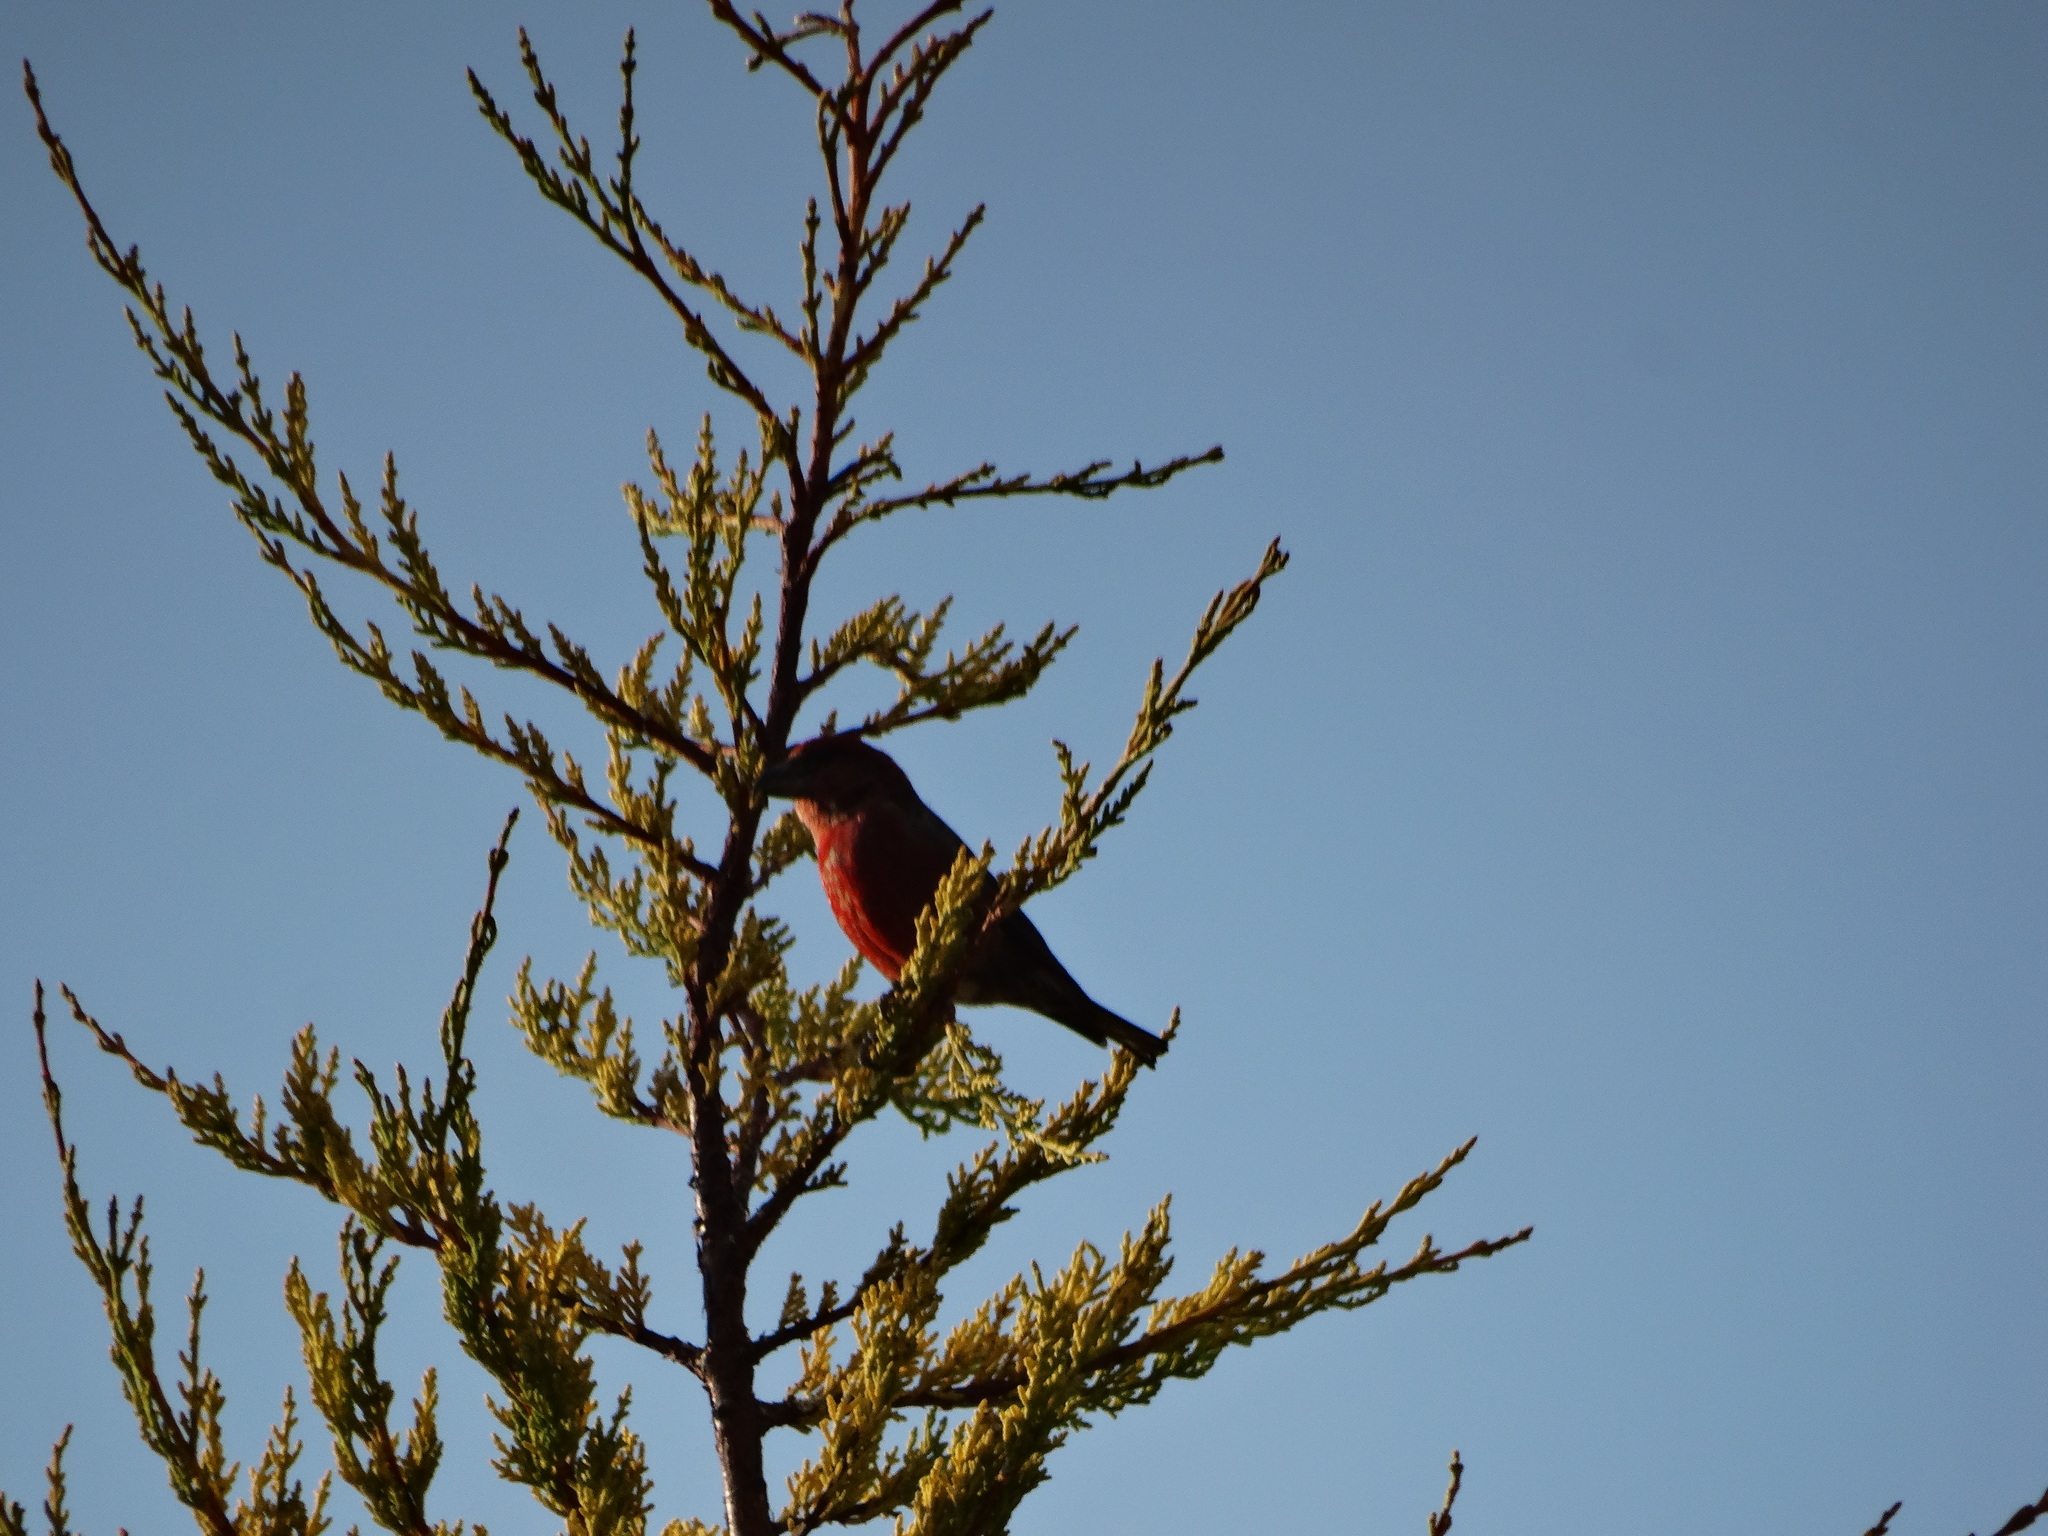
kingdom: Animalia
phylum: Chordata
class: Aves
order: Passeriformes
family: Fringillidae
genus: Loxia
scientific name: Loxia curvirostra
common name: Red crossbill
